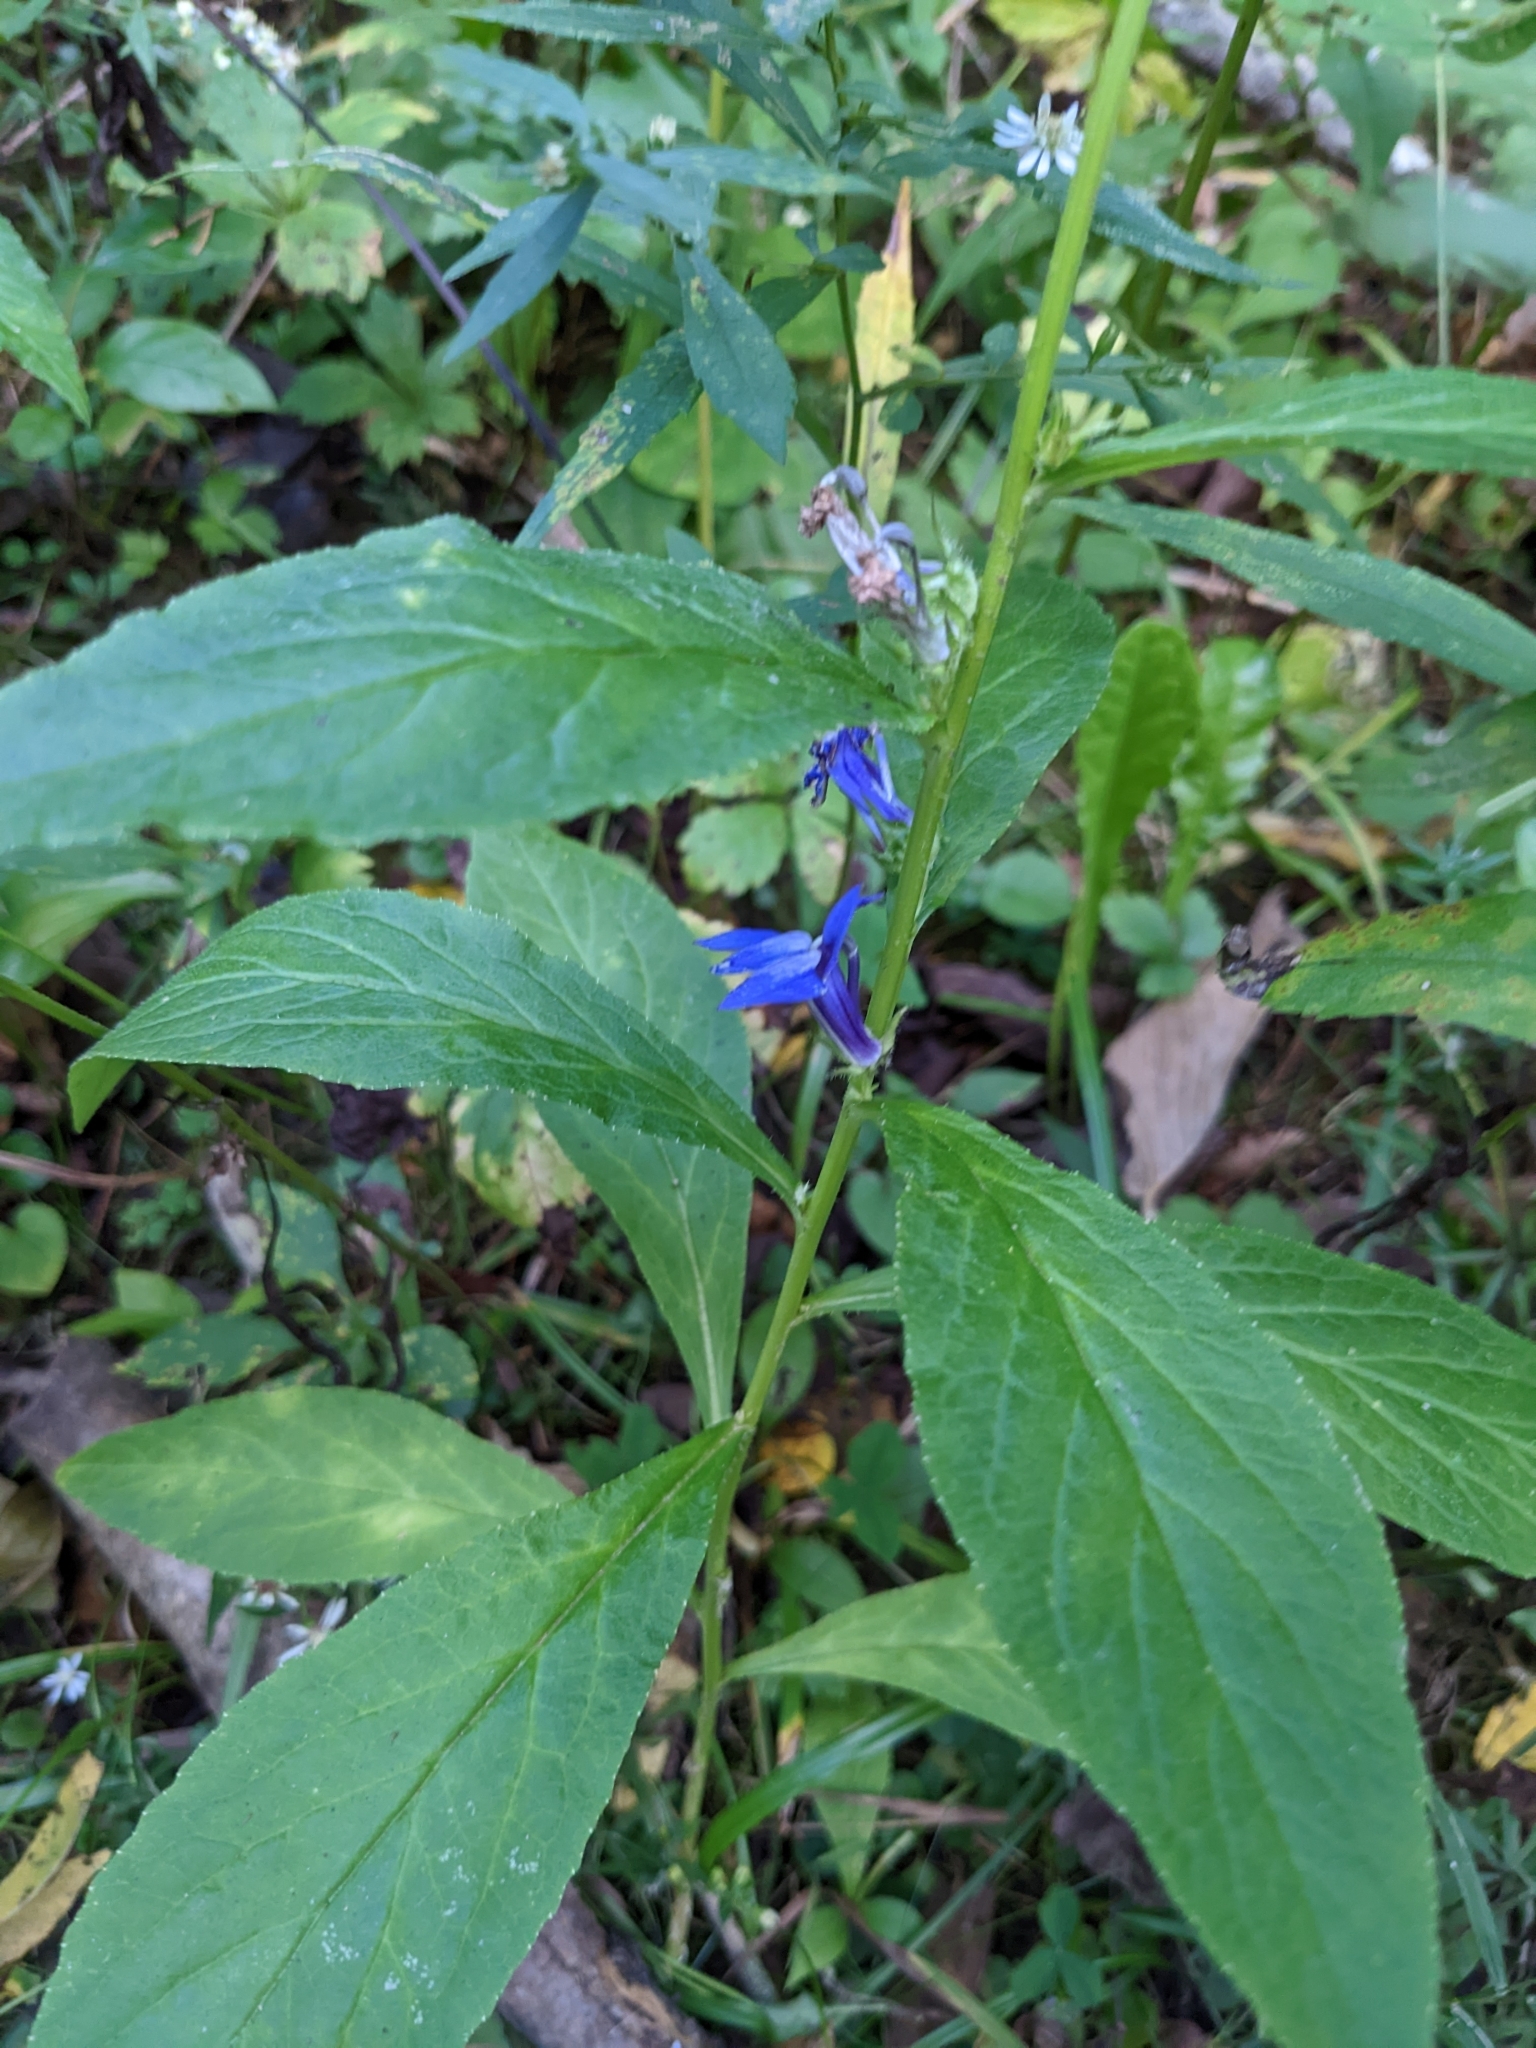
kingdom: Plantae
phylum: Tracheophyta
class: Magnoliopsida
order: Asterales
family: Campanulaceae
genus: Lobelia
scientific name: Lobelia siphilitica
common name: Great lobelia
